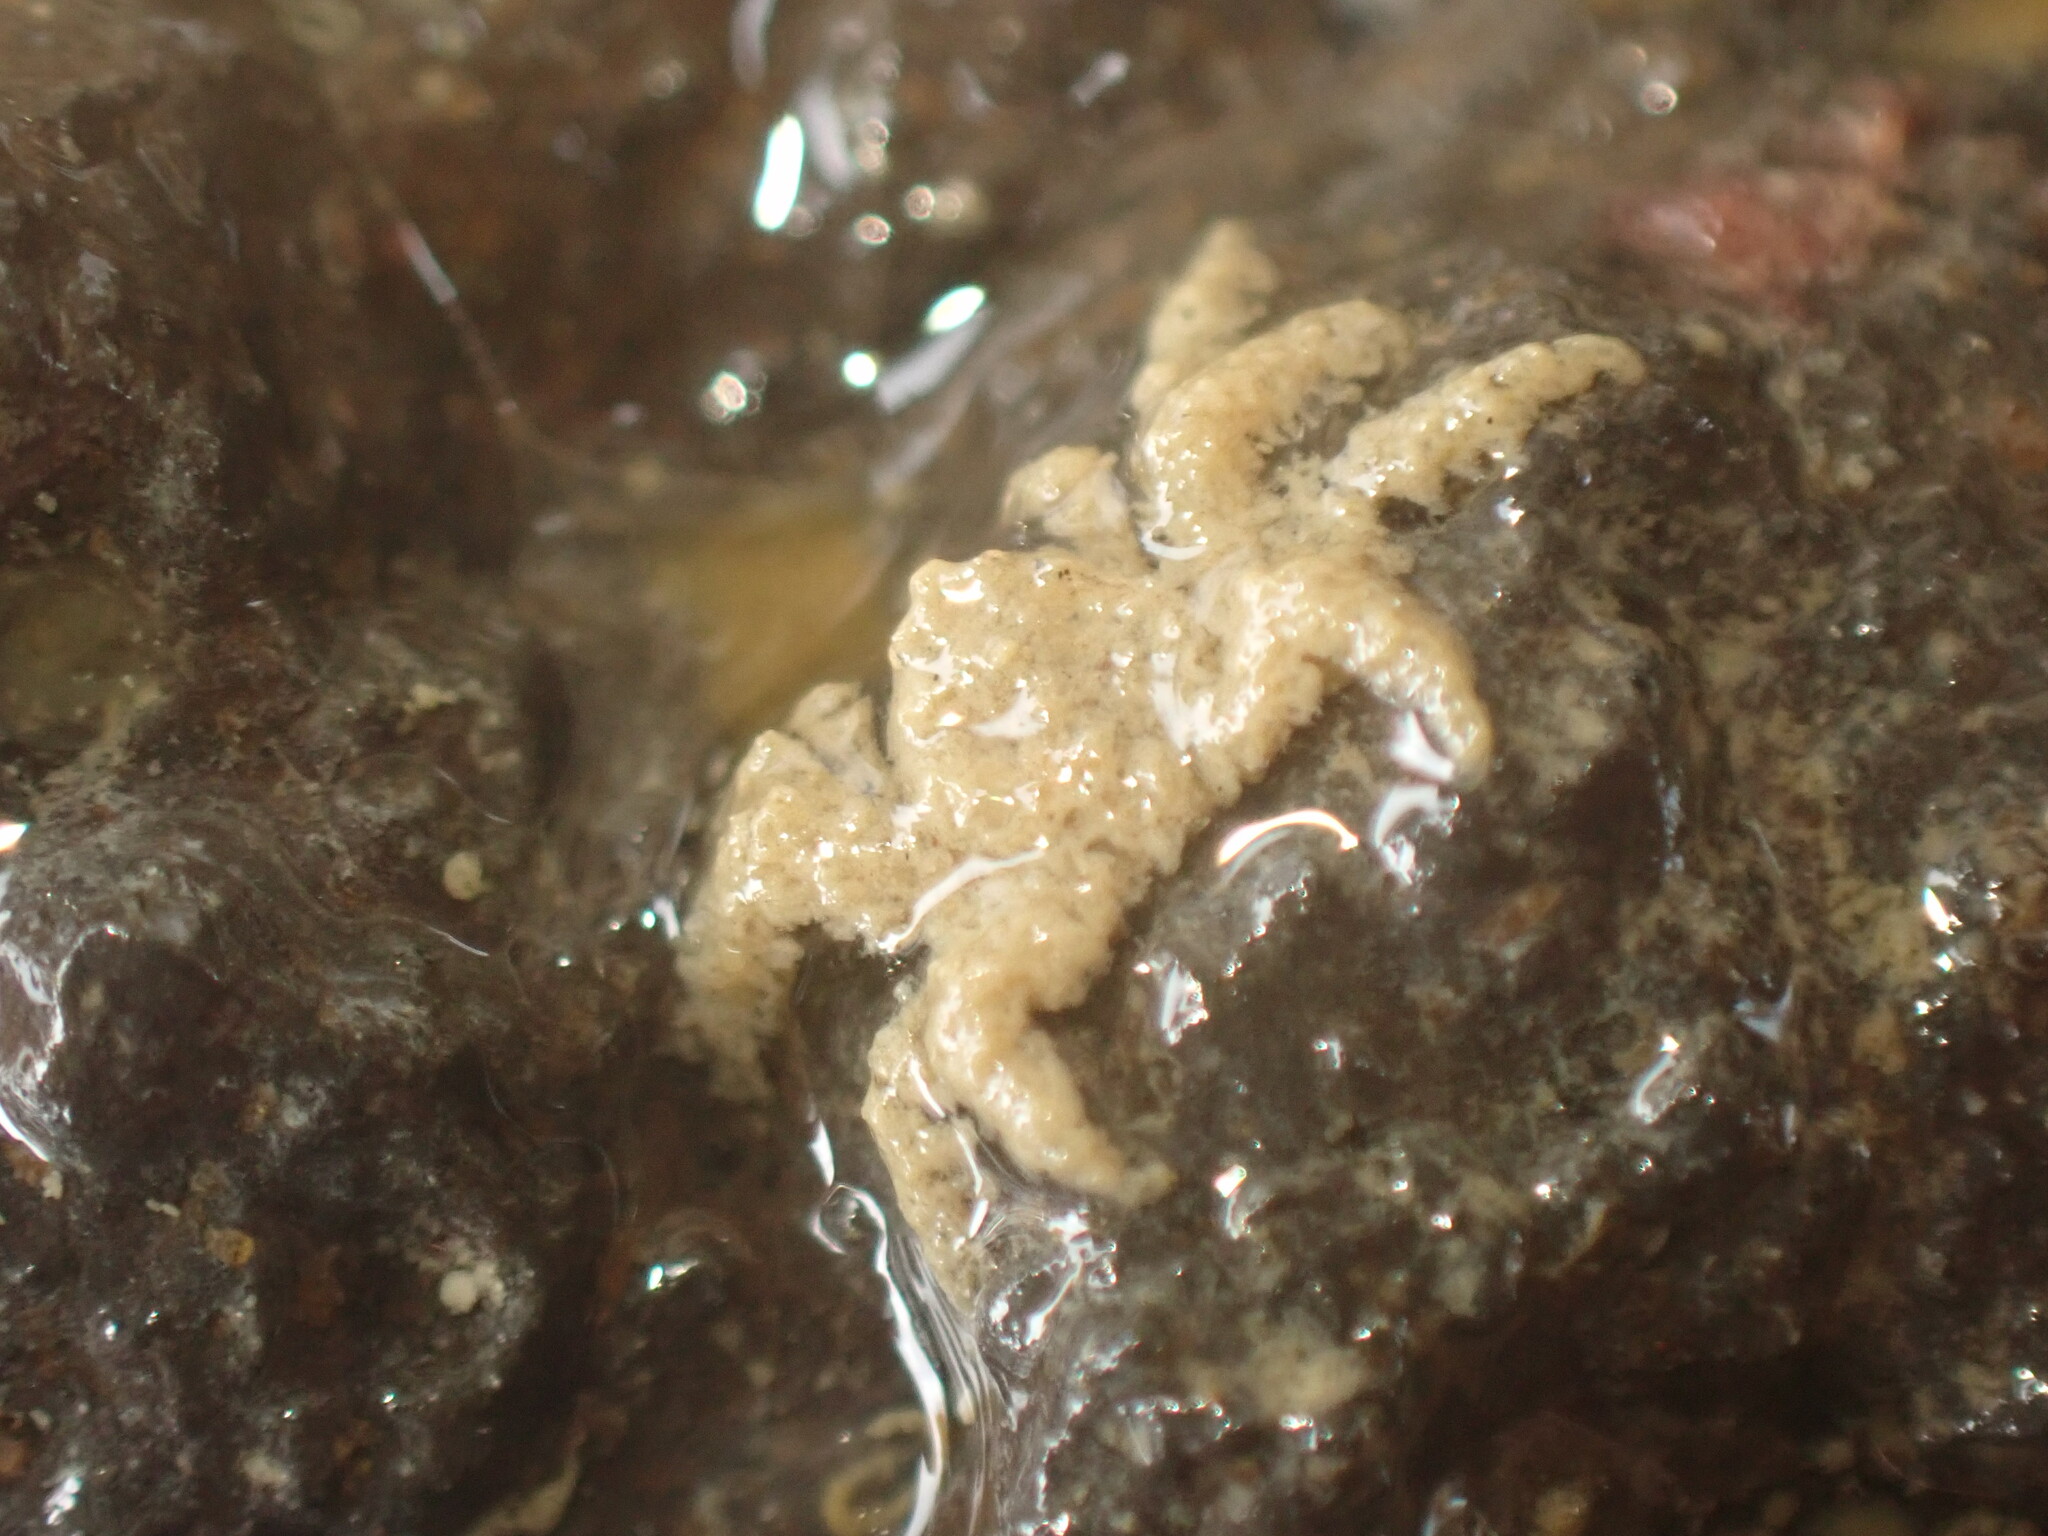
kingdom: Animalia
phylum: Arthropoda
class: Malacostraca
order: Decapoda
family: Hymenosomatidae
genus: Neohymenicus
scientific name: Neohymenicus pubescens
